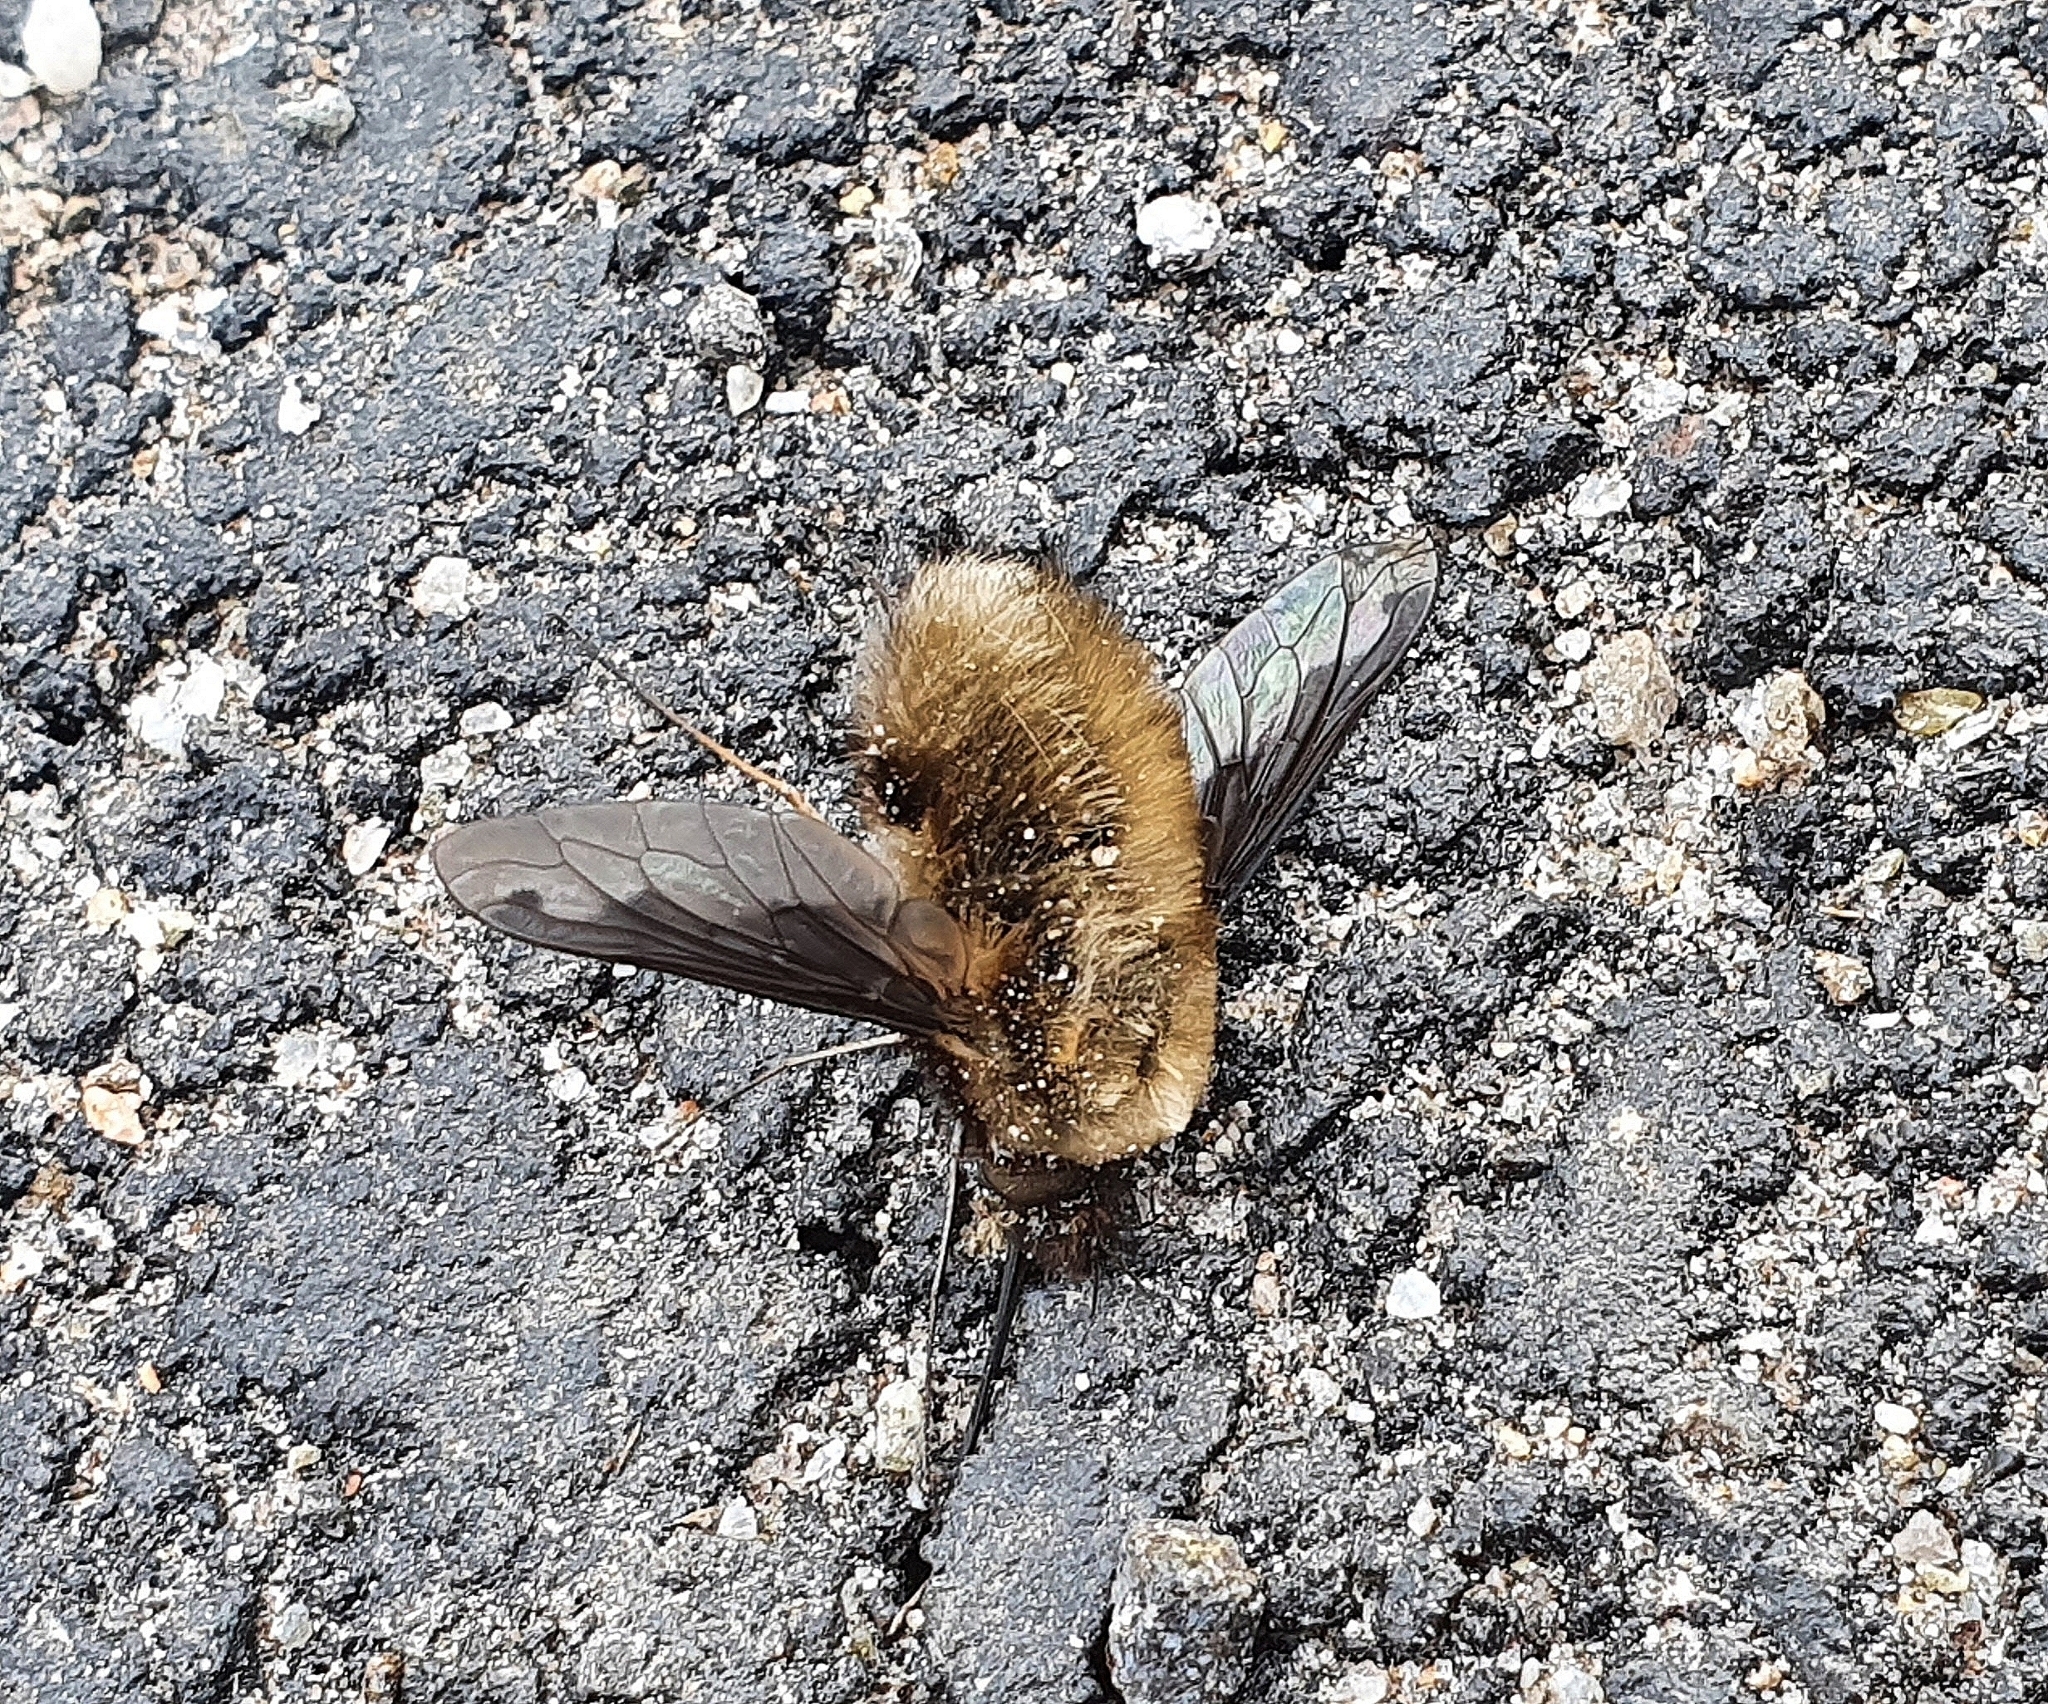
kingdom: Animalia
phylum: Arthropoda
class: Insecta
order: Diptera
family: Bombyliidae
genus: Bombylius
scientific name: Bombylius major
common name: Bee fly
